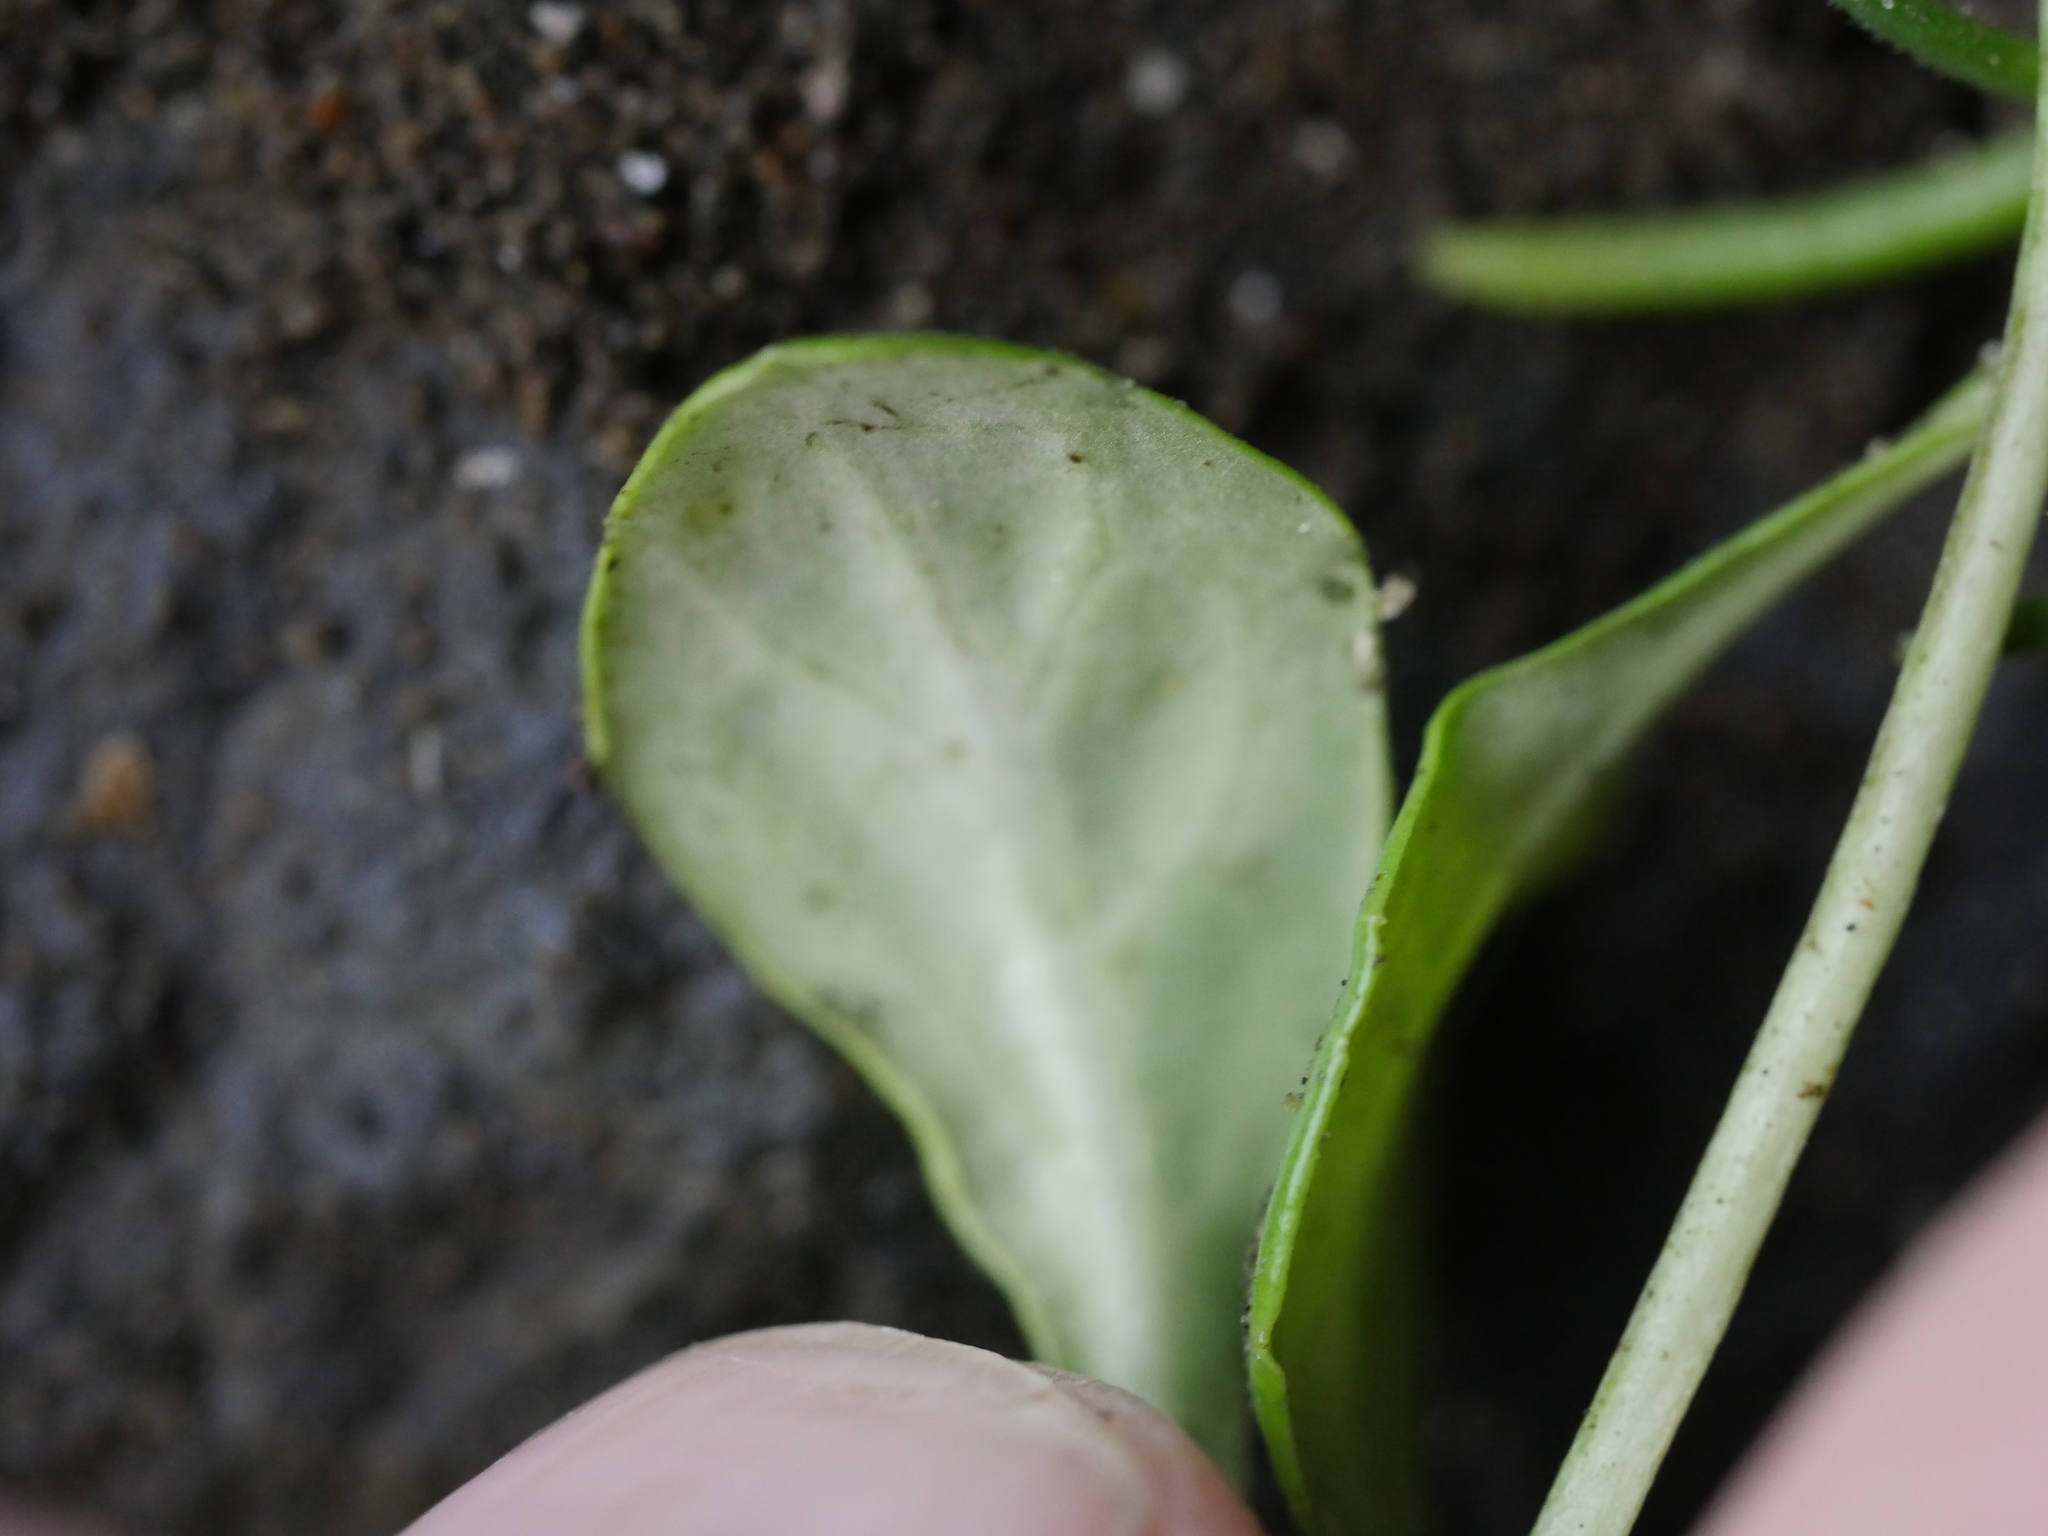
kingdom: Plantae
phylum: Tracheophyta
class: Magnoliopsida
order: Asterales
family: Campanulaceae
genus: Lobelia
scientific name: Lobelia anceps
